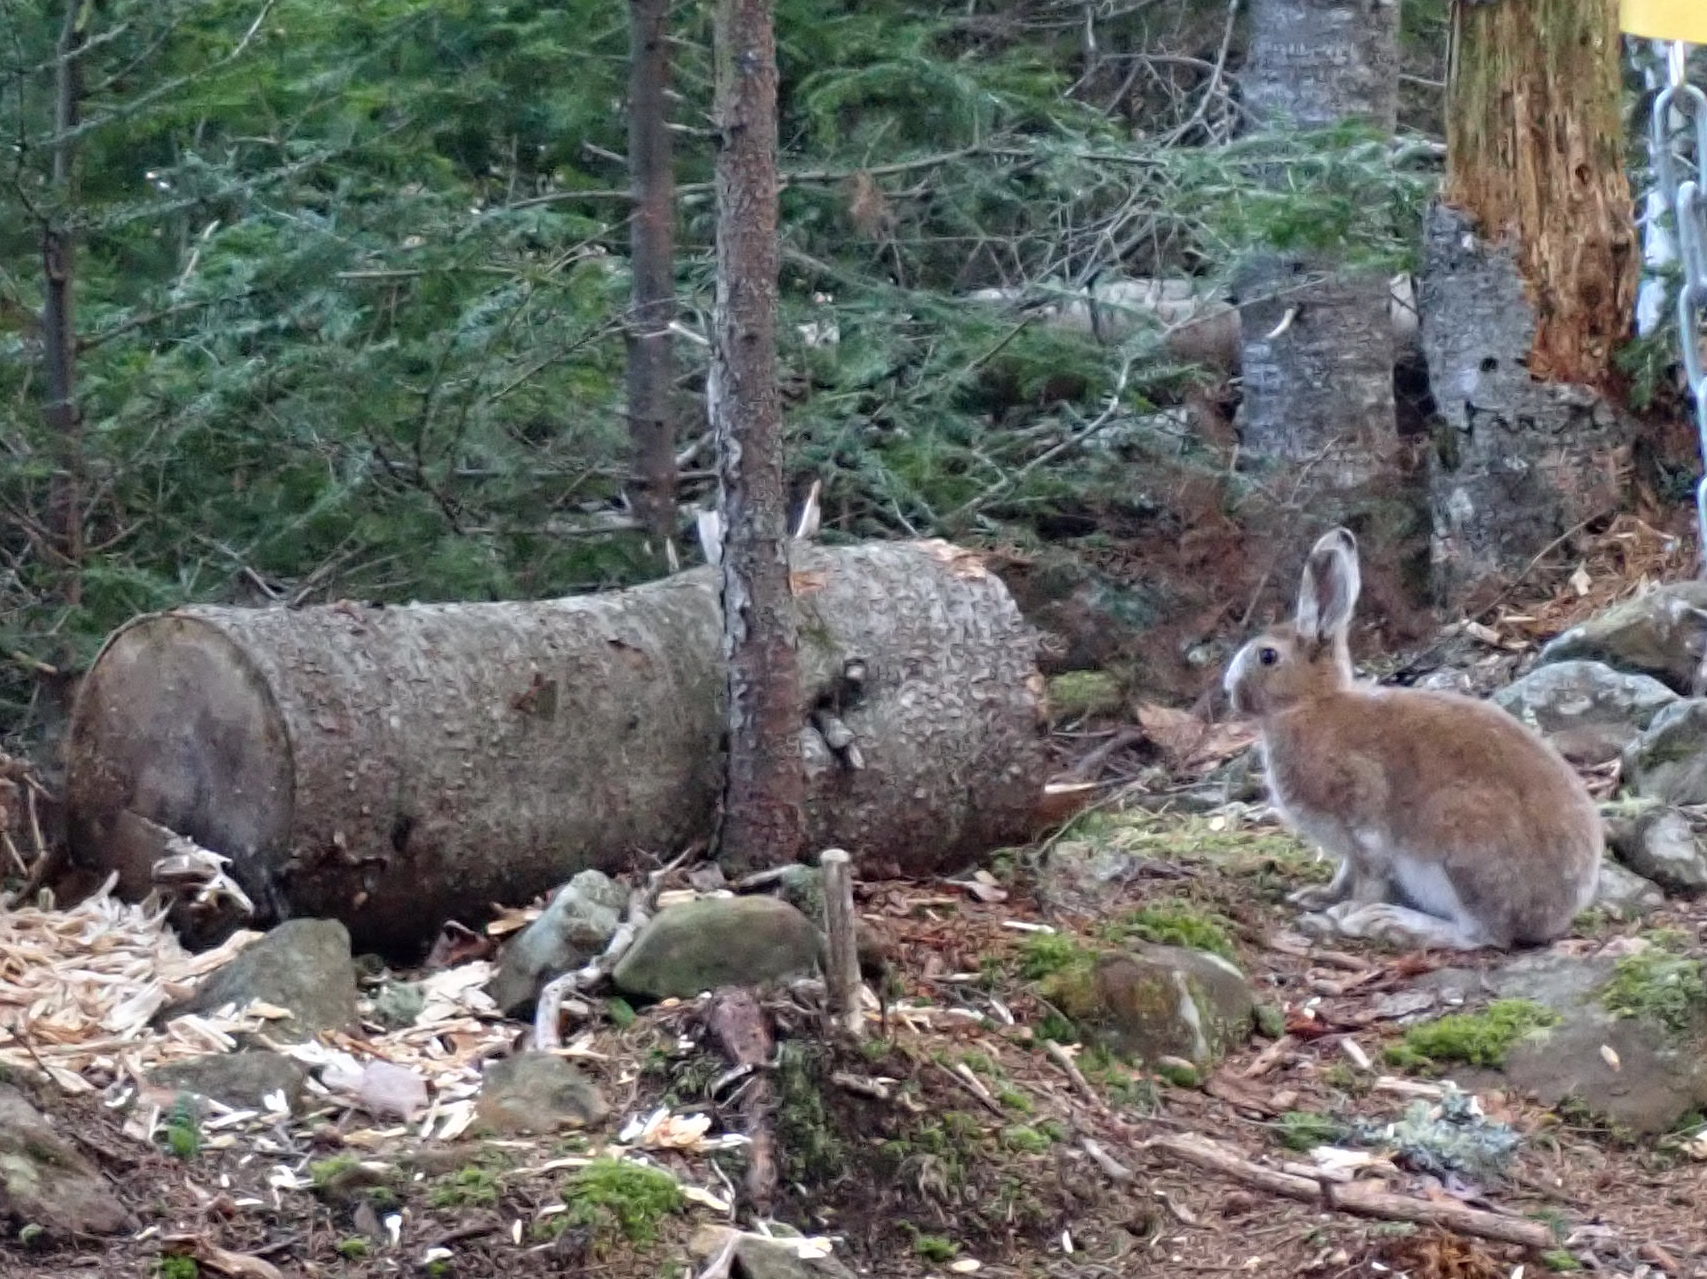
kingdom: Animalia
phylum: Chordata
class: Mammalia
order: Lagomorpha
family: Leporidae
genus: Lepus
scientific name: Lepus americanus
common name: Snowshoe hare
